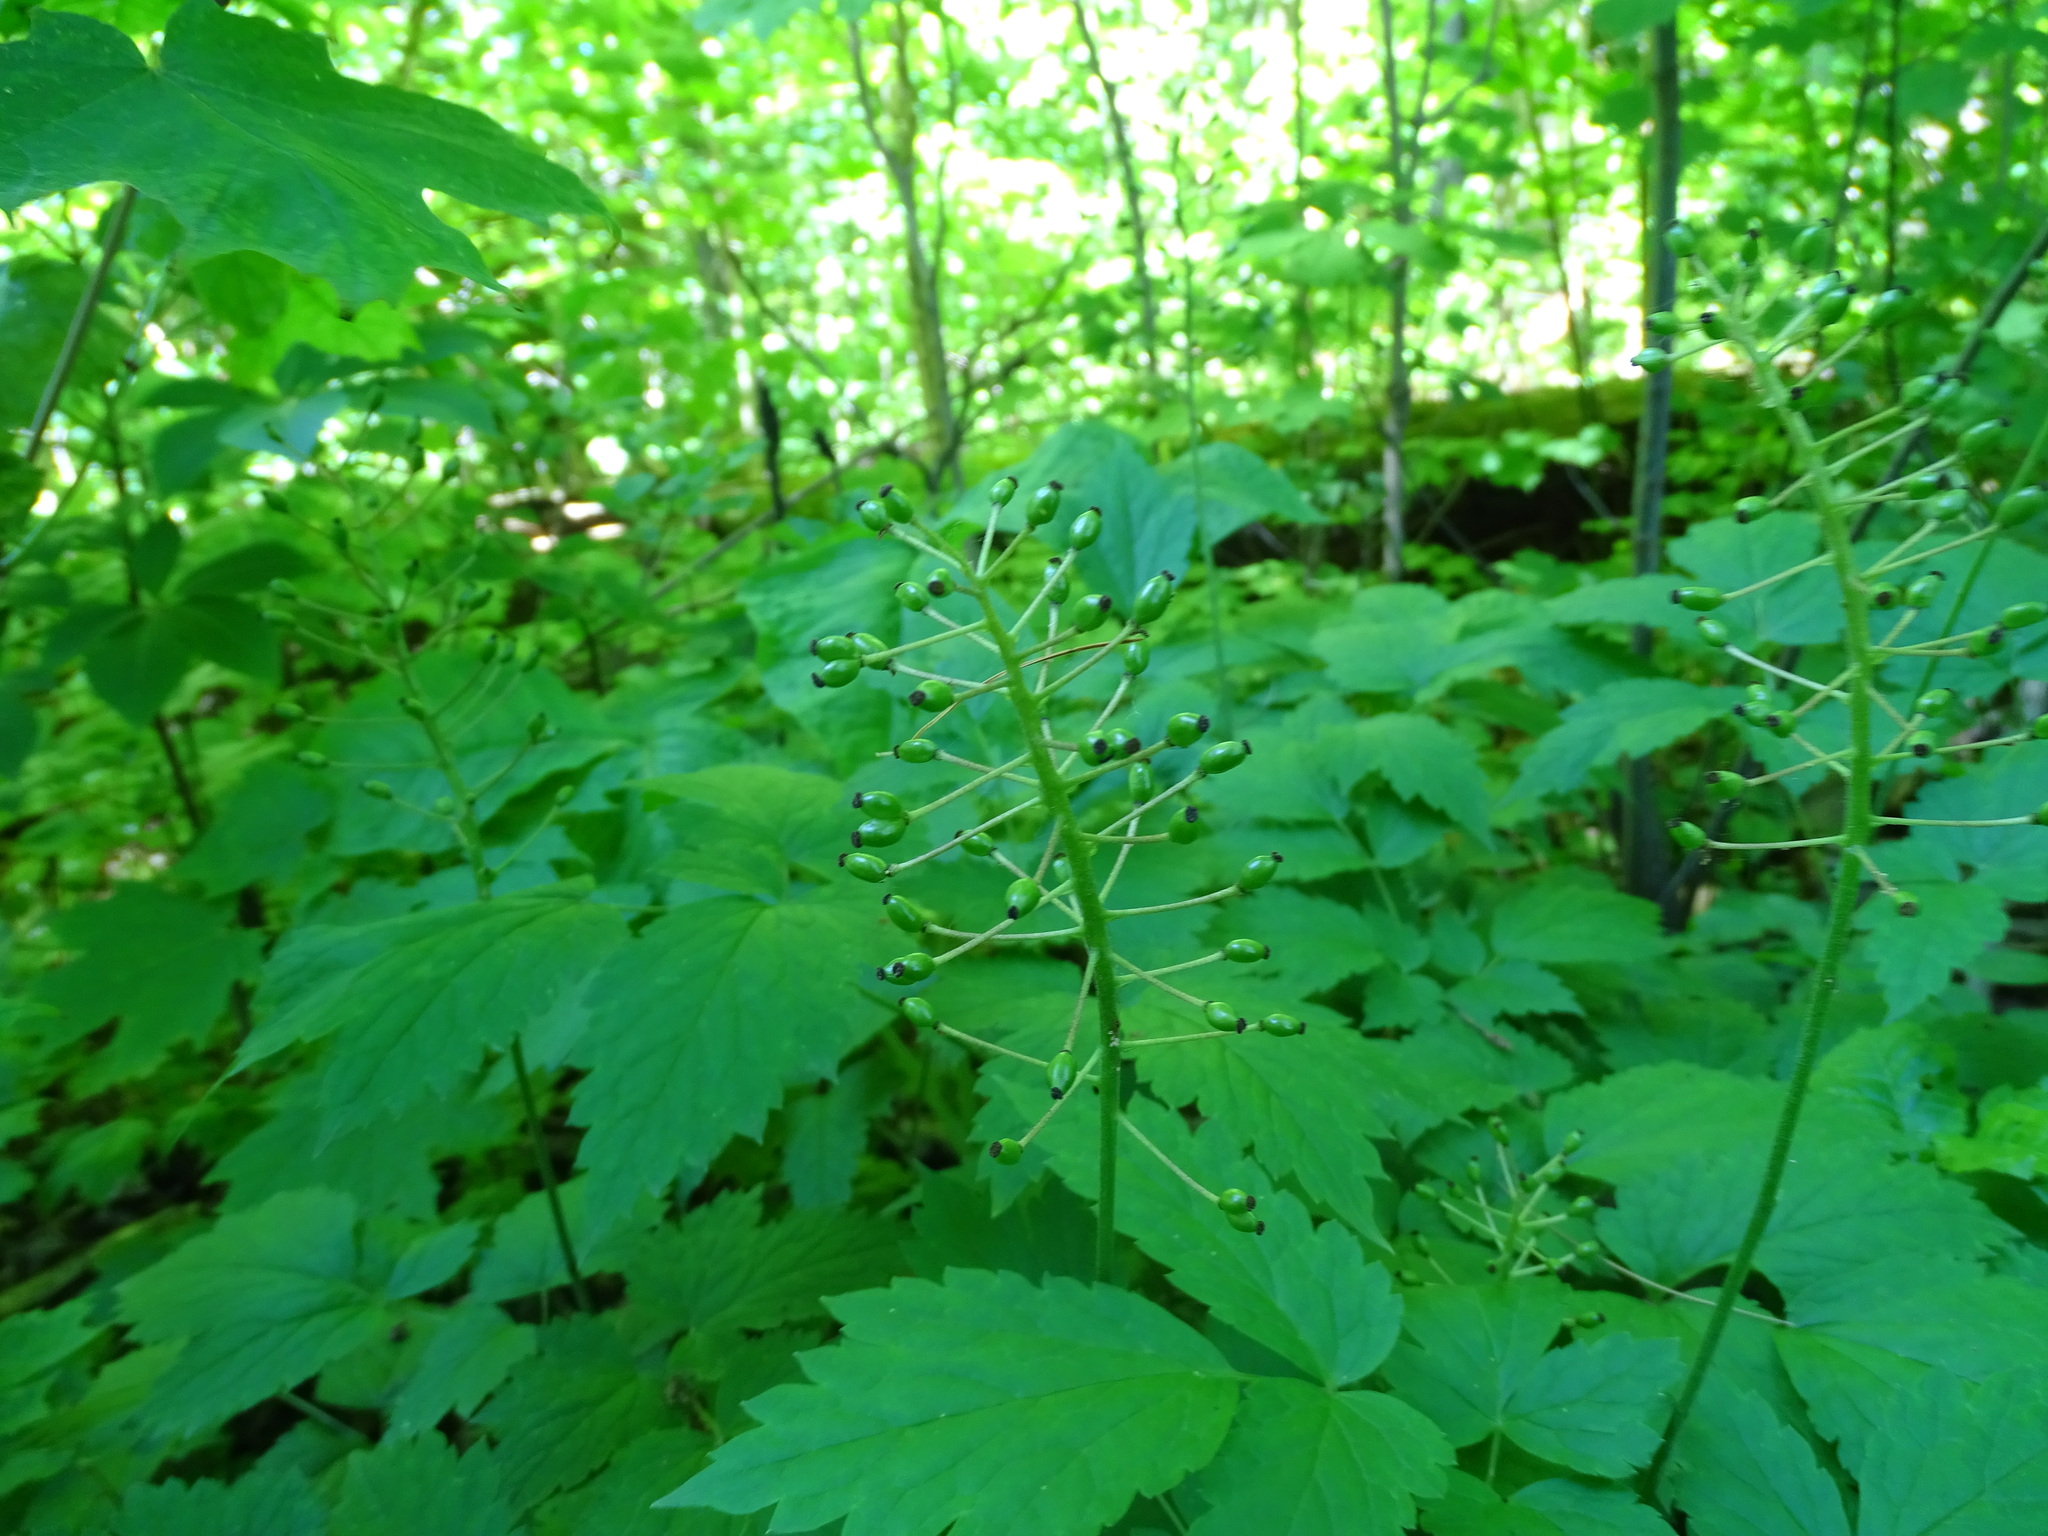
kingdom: Plantae
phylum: Tracheophyta
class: Magnoliopsida
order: Ranunculales
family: Ranunculaceae
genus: Actaea
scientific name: Actaea rubra
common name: Red baneberry
